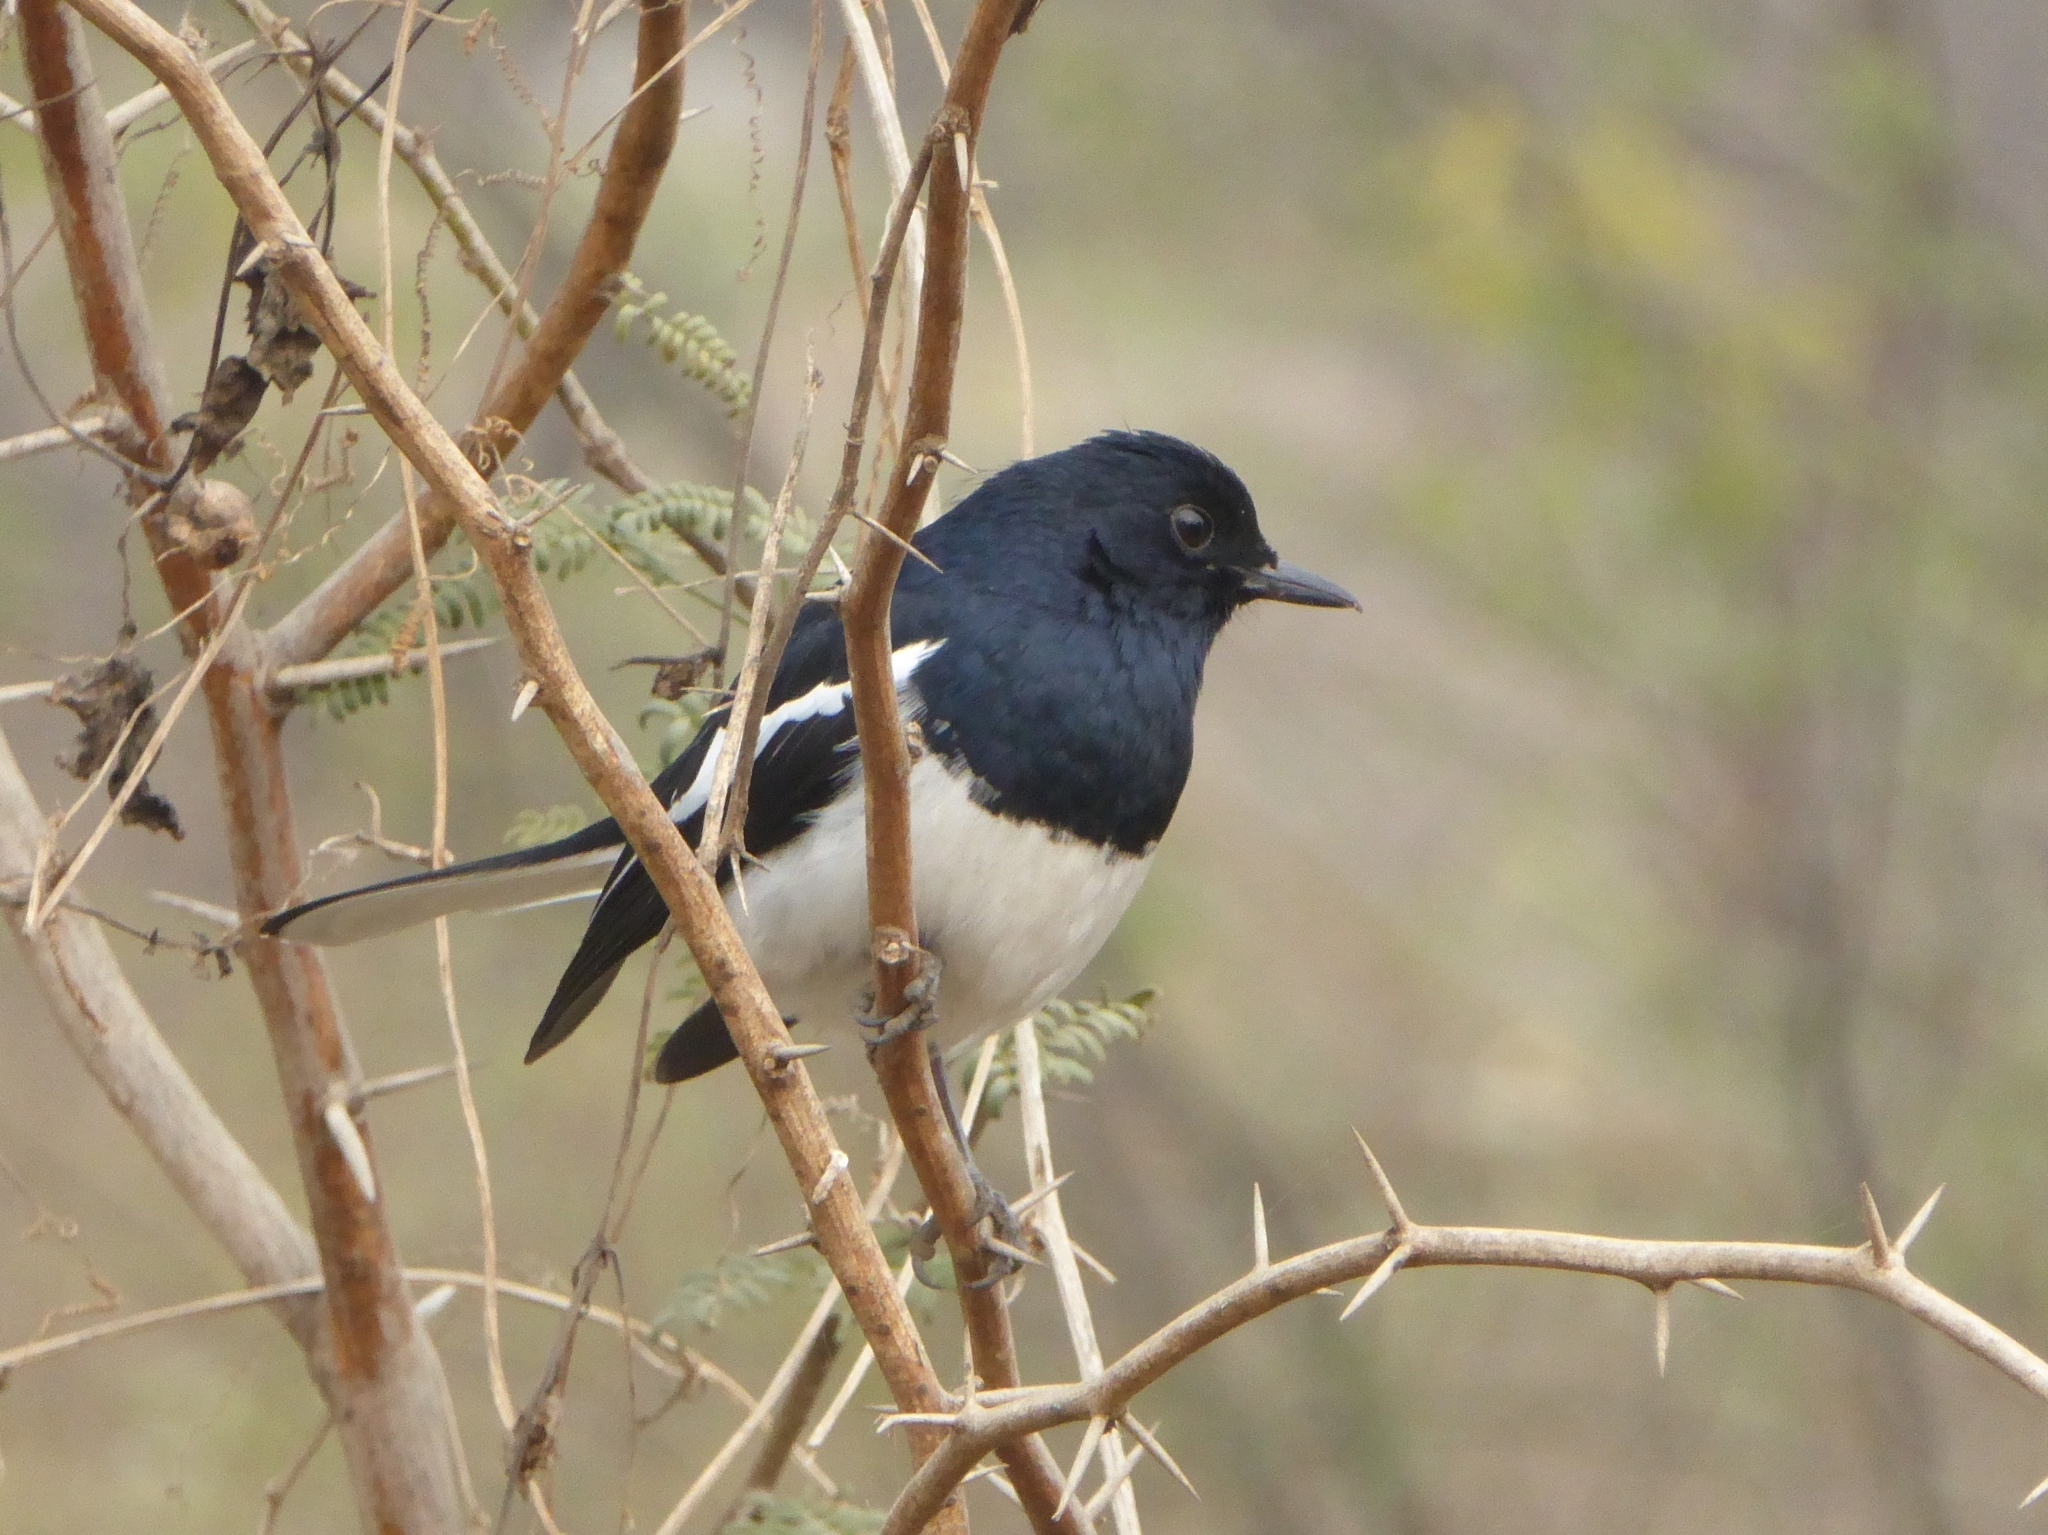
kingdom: Animalia
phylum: Chordata
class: Aves
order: Passeriformes
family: Muscicapidae
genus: Copsychus
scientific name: Copsychus saularis
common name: Oriental magpie-robin
